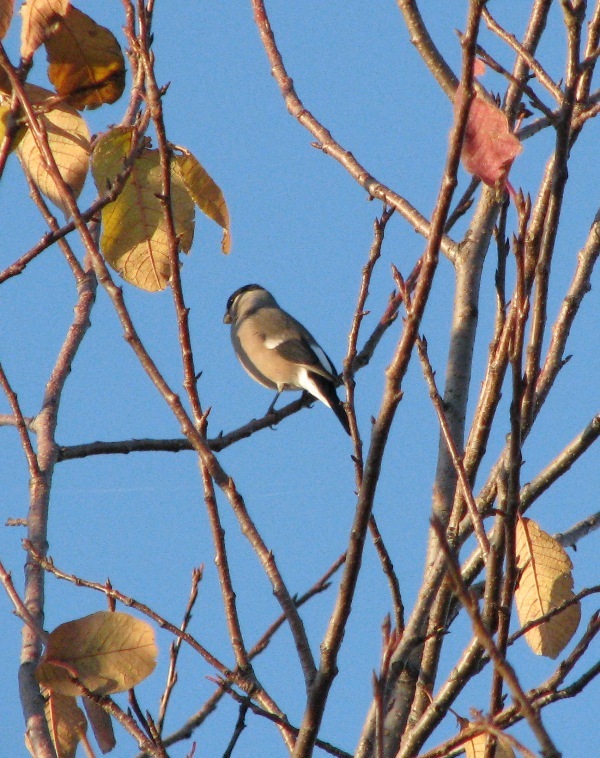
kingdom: Animalia
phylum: Chordata
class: Aves
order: Passeriformes
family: Fringillidae
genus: Pyrrhula
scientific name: Pyrrhula pyrrhula
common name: Eurasian bullfinch
